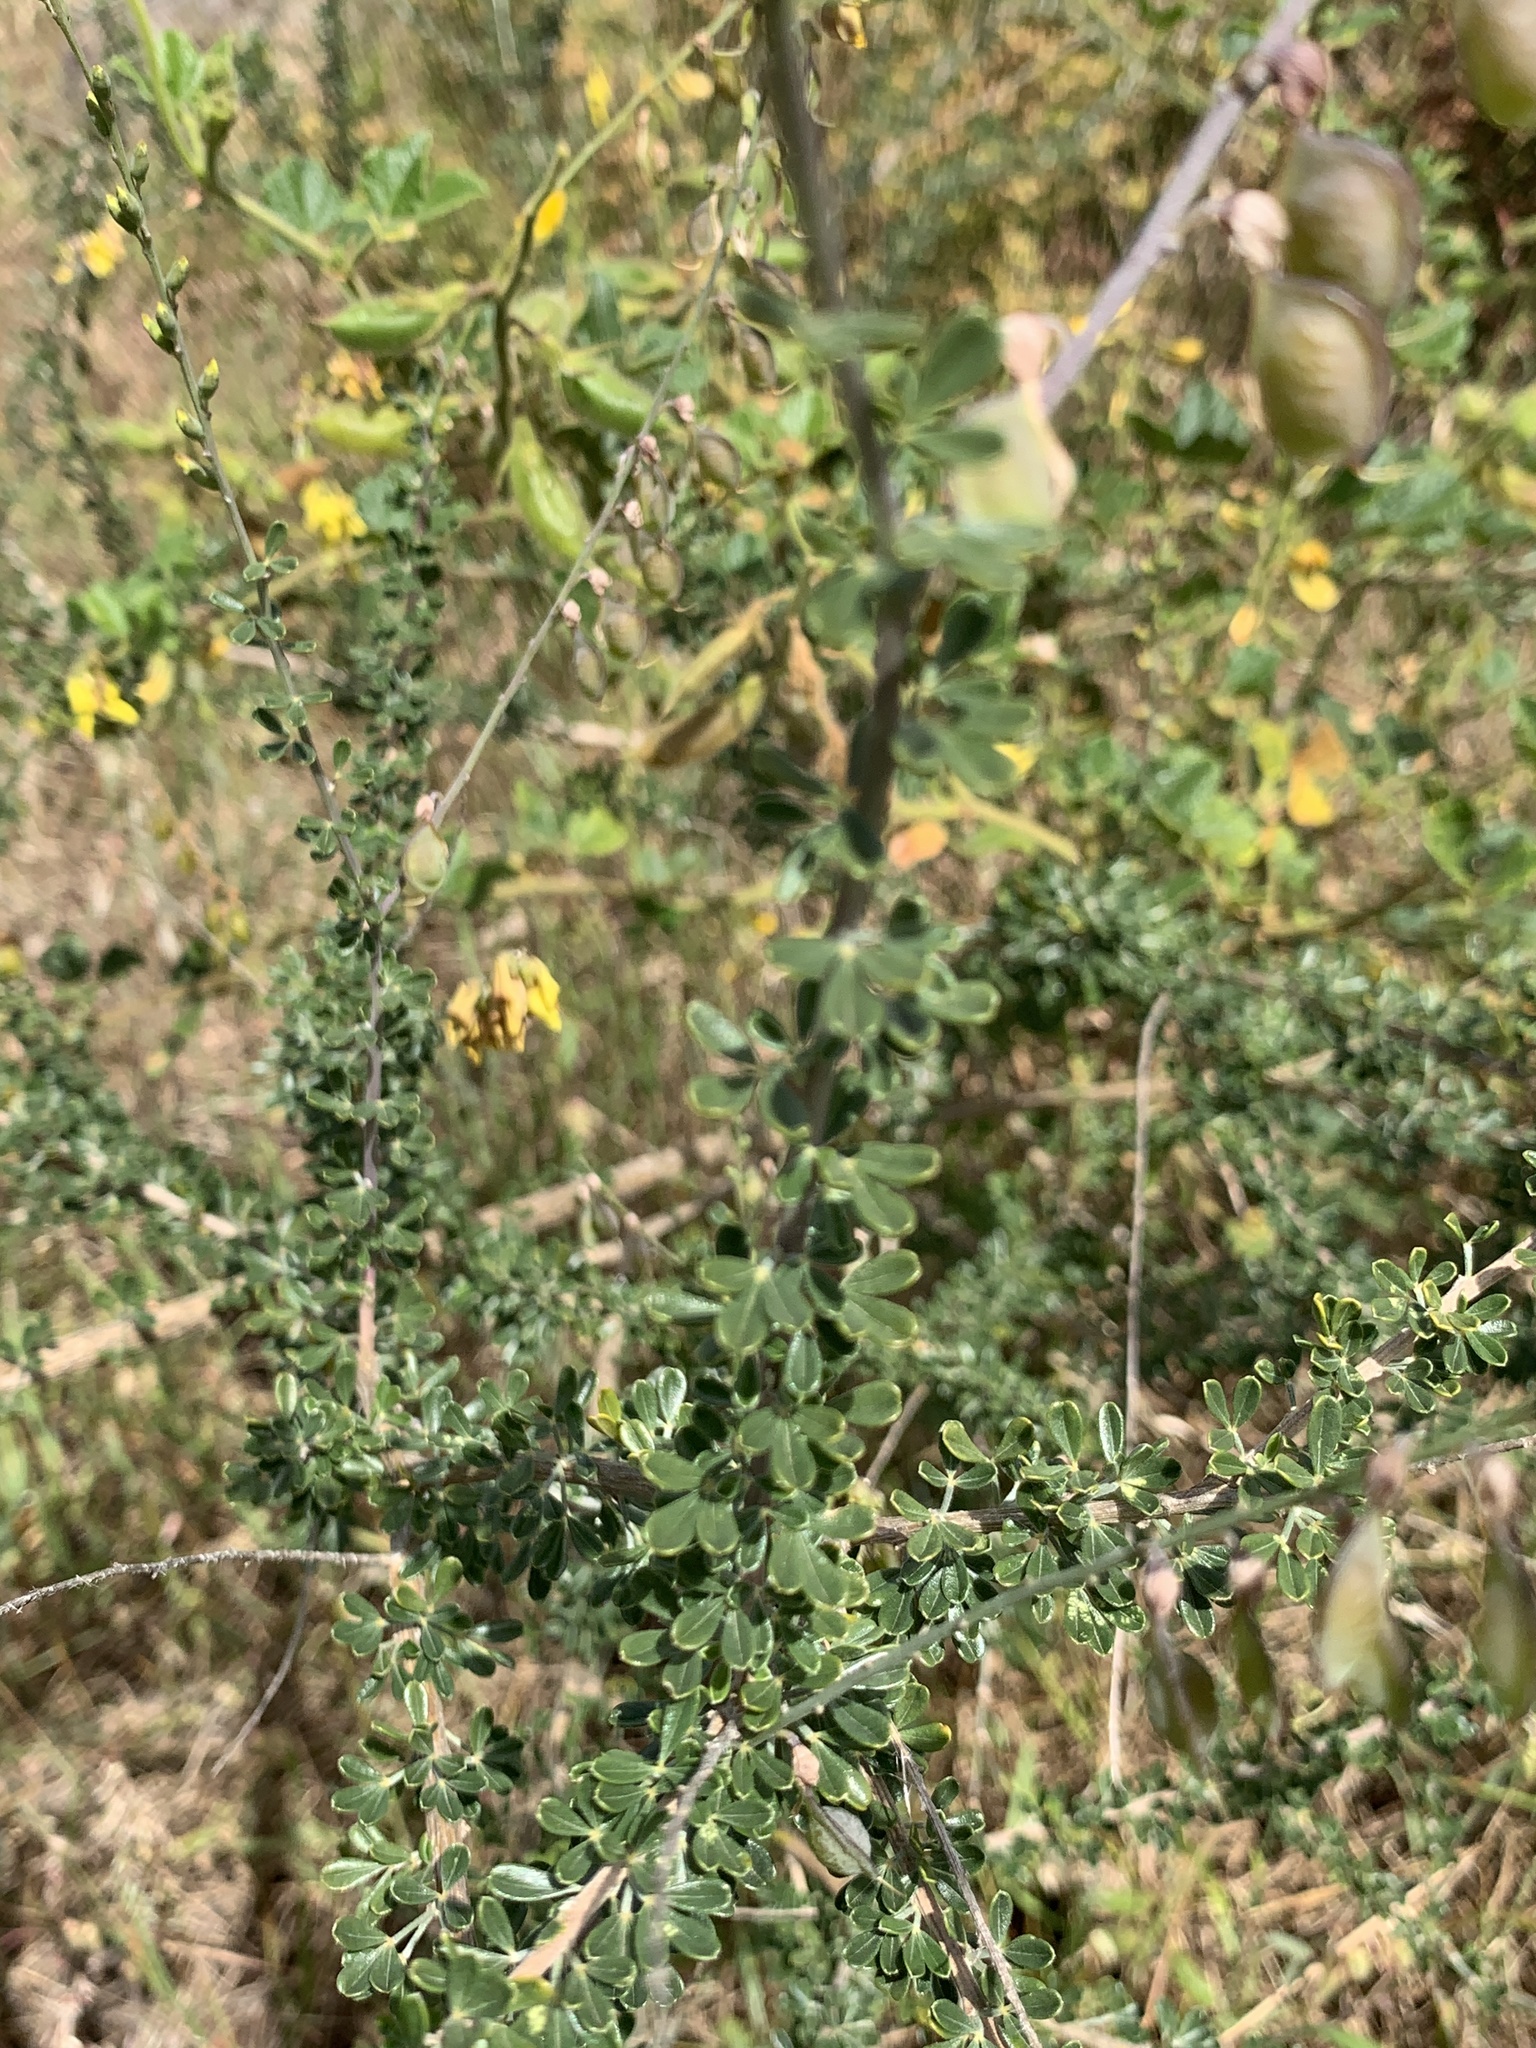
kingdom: Plantae
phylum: Tracheophyta
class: Magnoliopsida
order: Fabales
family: Fabaceae
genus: Wiborgia
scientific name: Wiborgia obcordata
